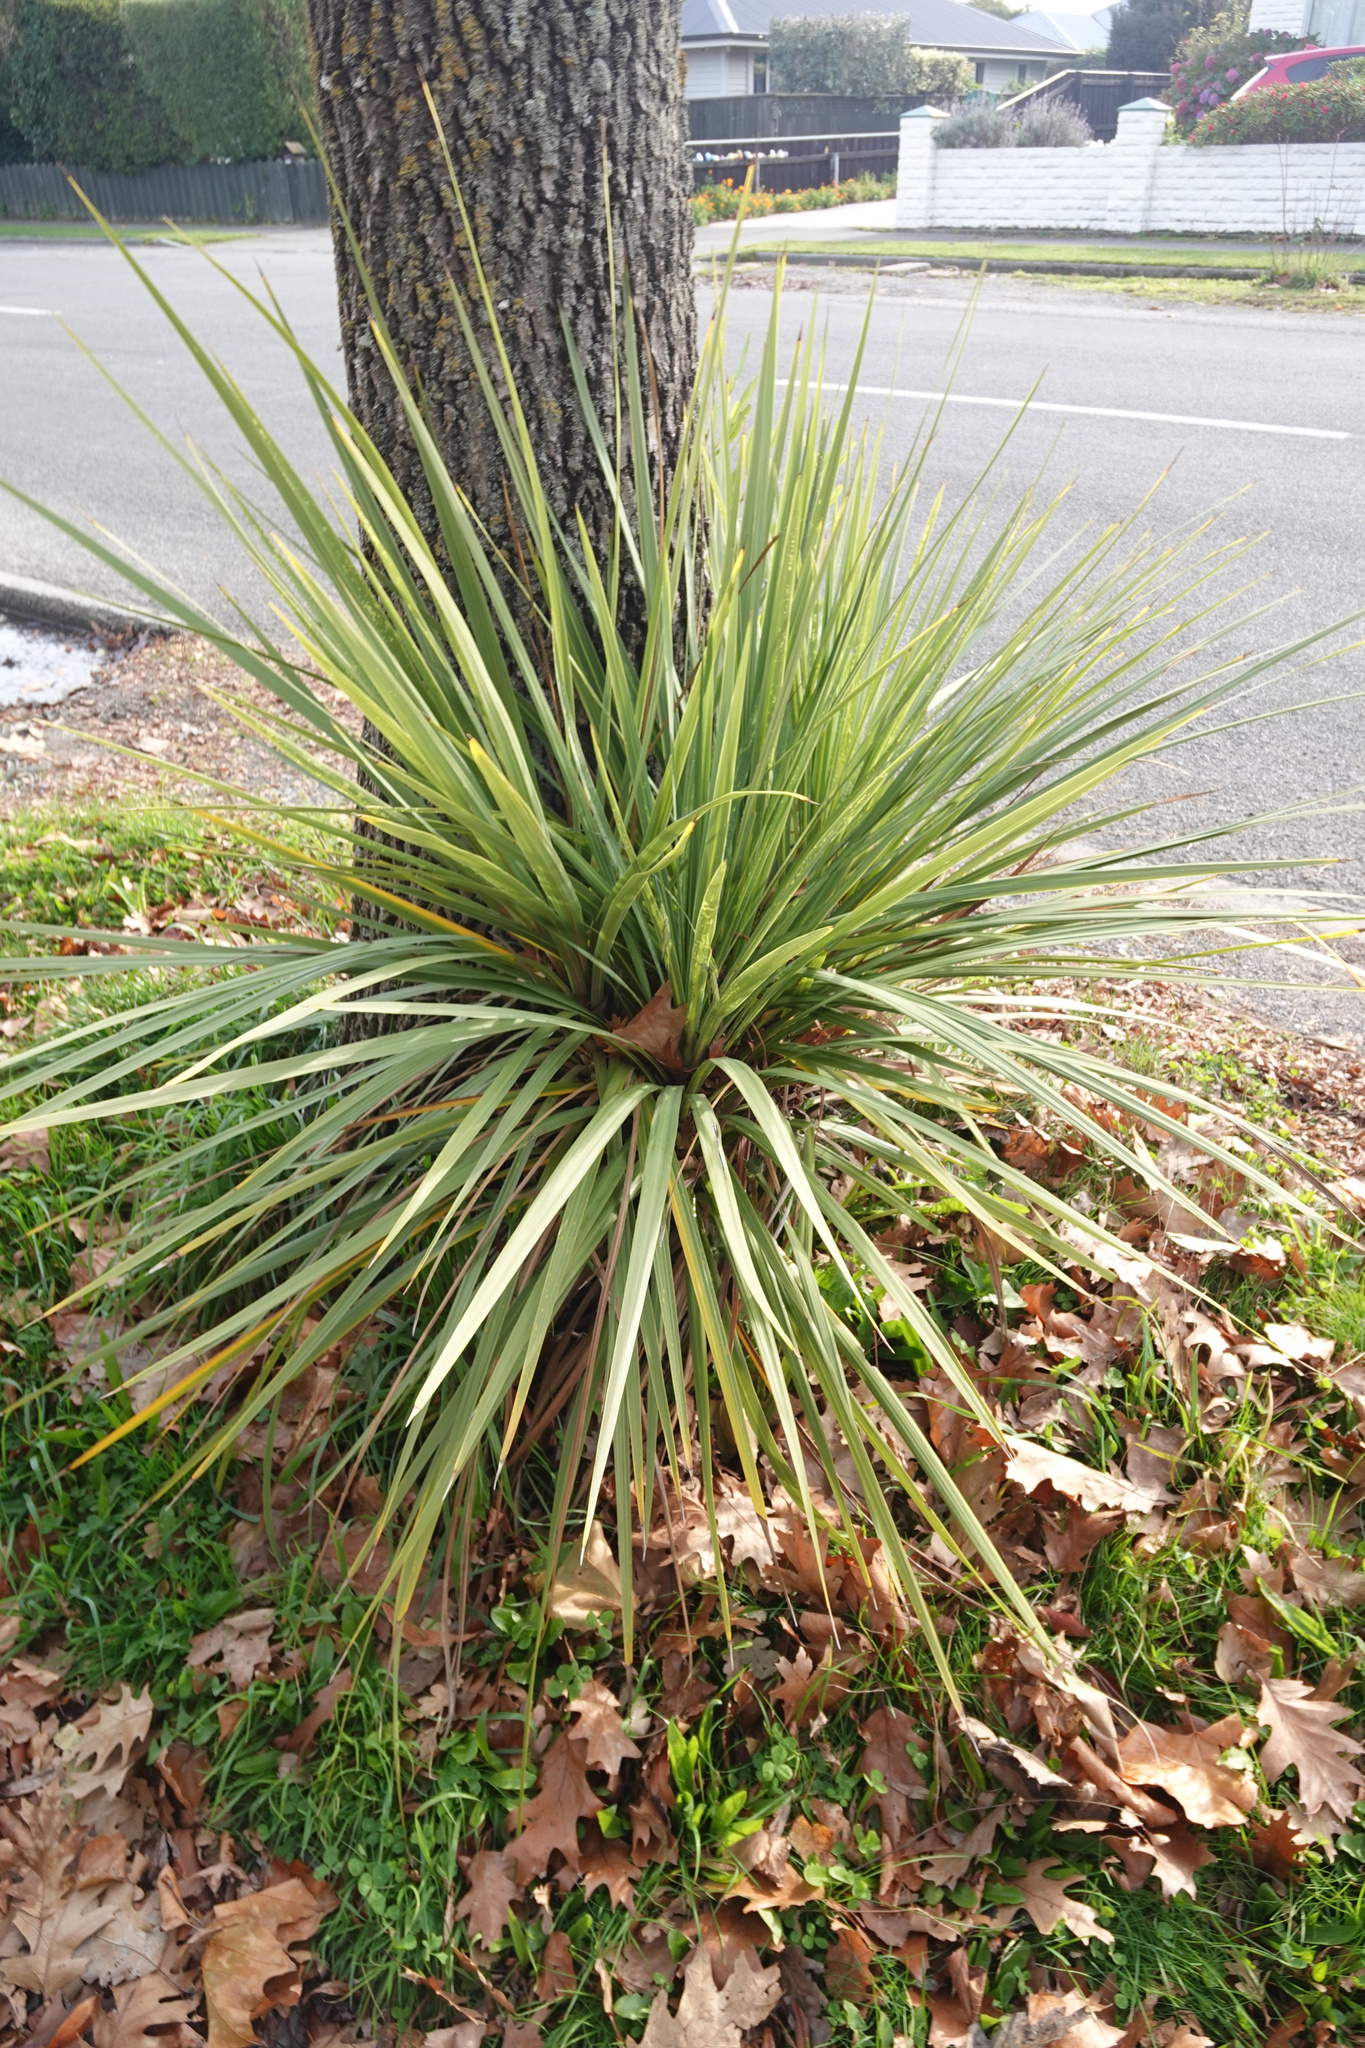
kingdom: Plantae
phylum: Tracheophyta
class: Liliopsida
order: Asparagales
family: Asparagaceae
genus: Cordyline
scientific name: Cordyline australis
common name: Cabbage-palm
